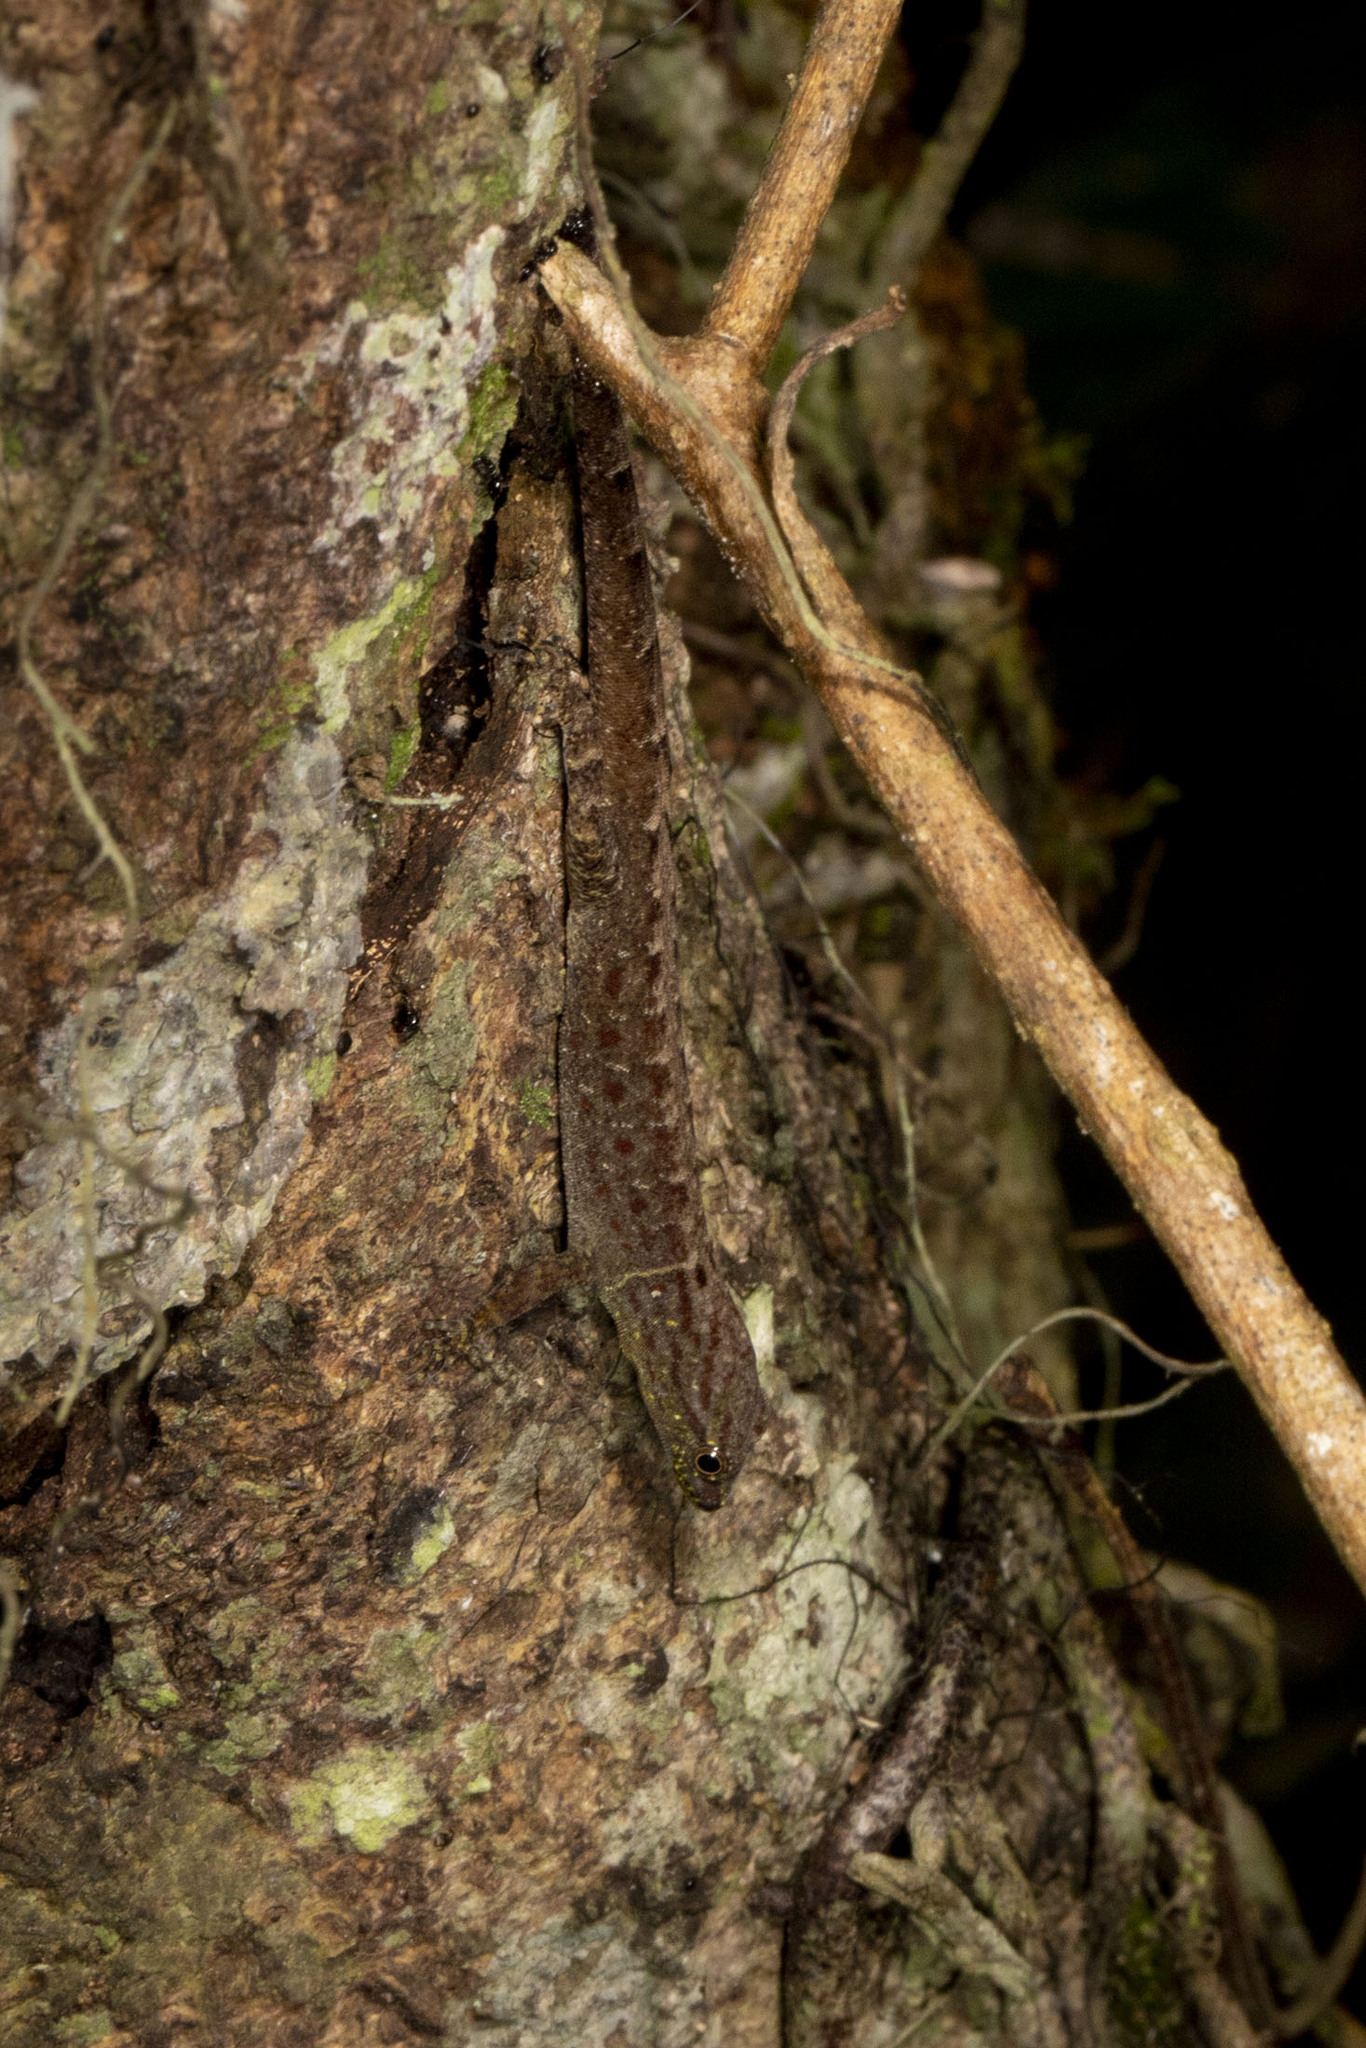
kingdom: Animalia
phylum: Chordata
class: Squamata
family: Sphaerodactylidae
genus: Gonatodes
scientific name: Gonatodes humeralis
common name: South american clawed gecko
